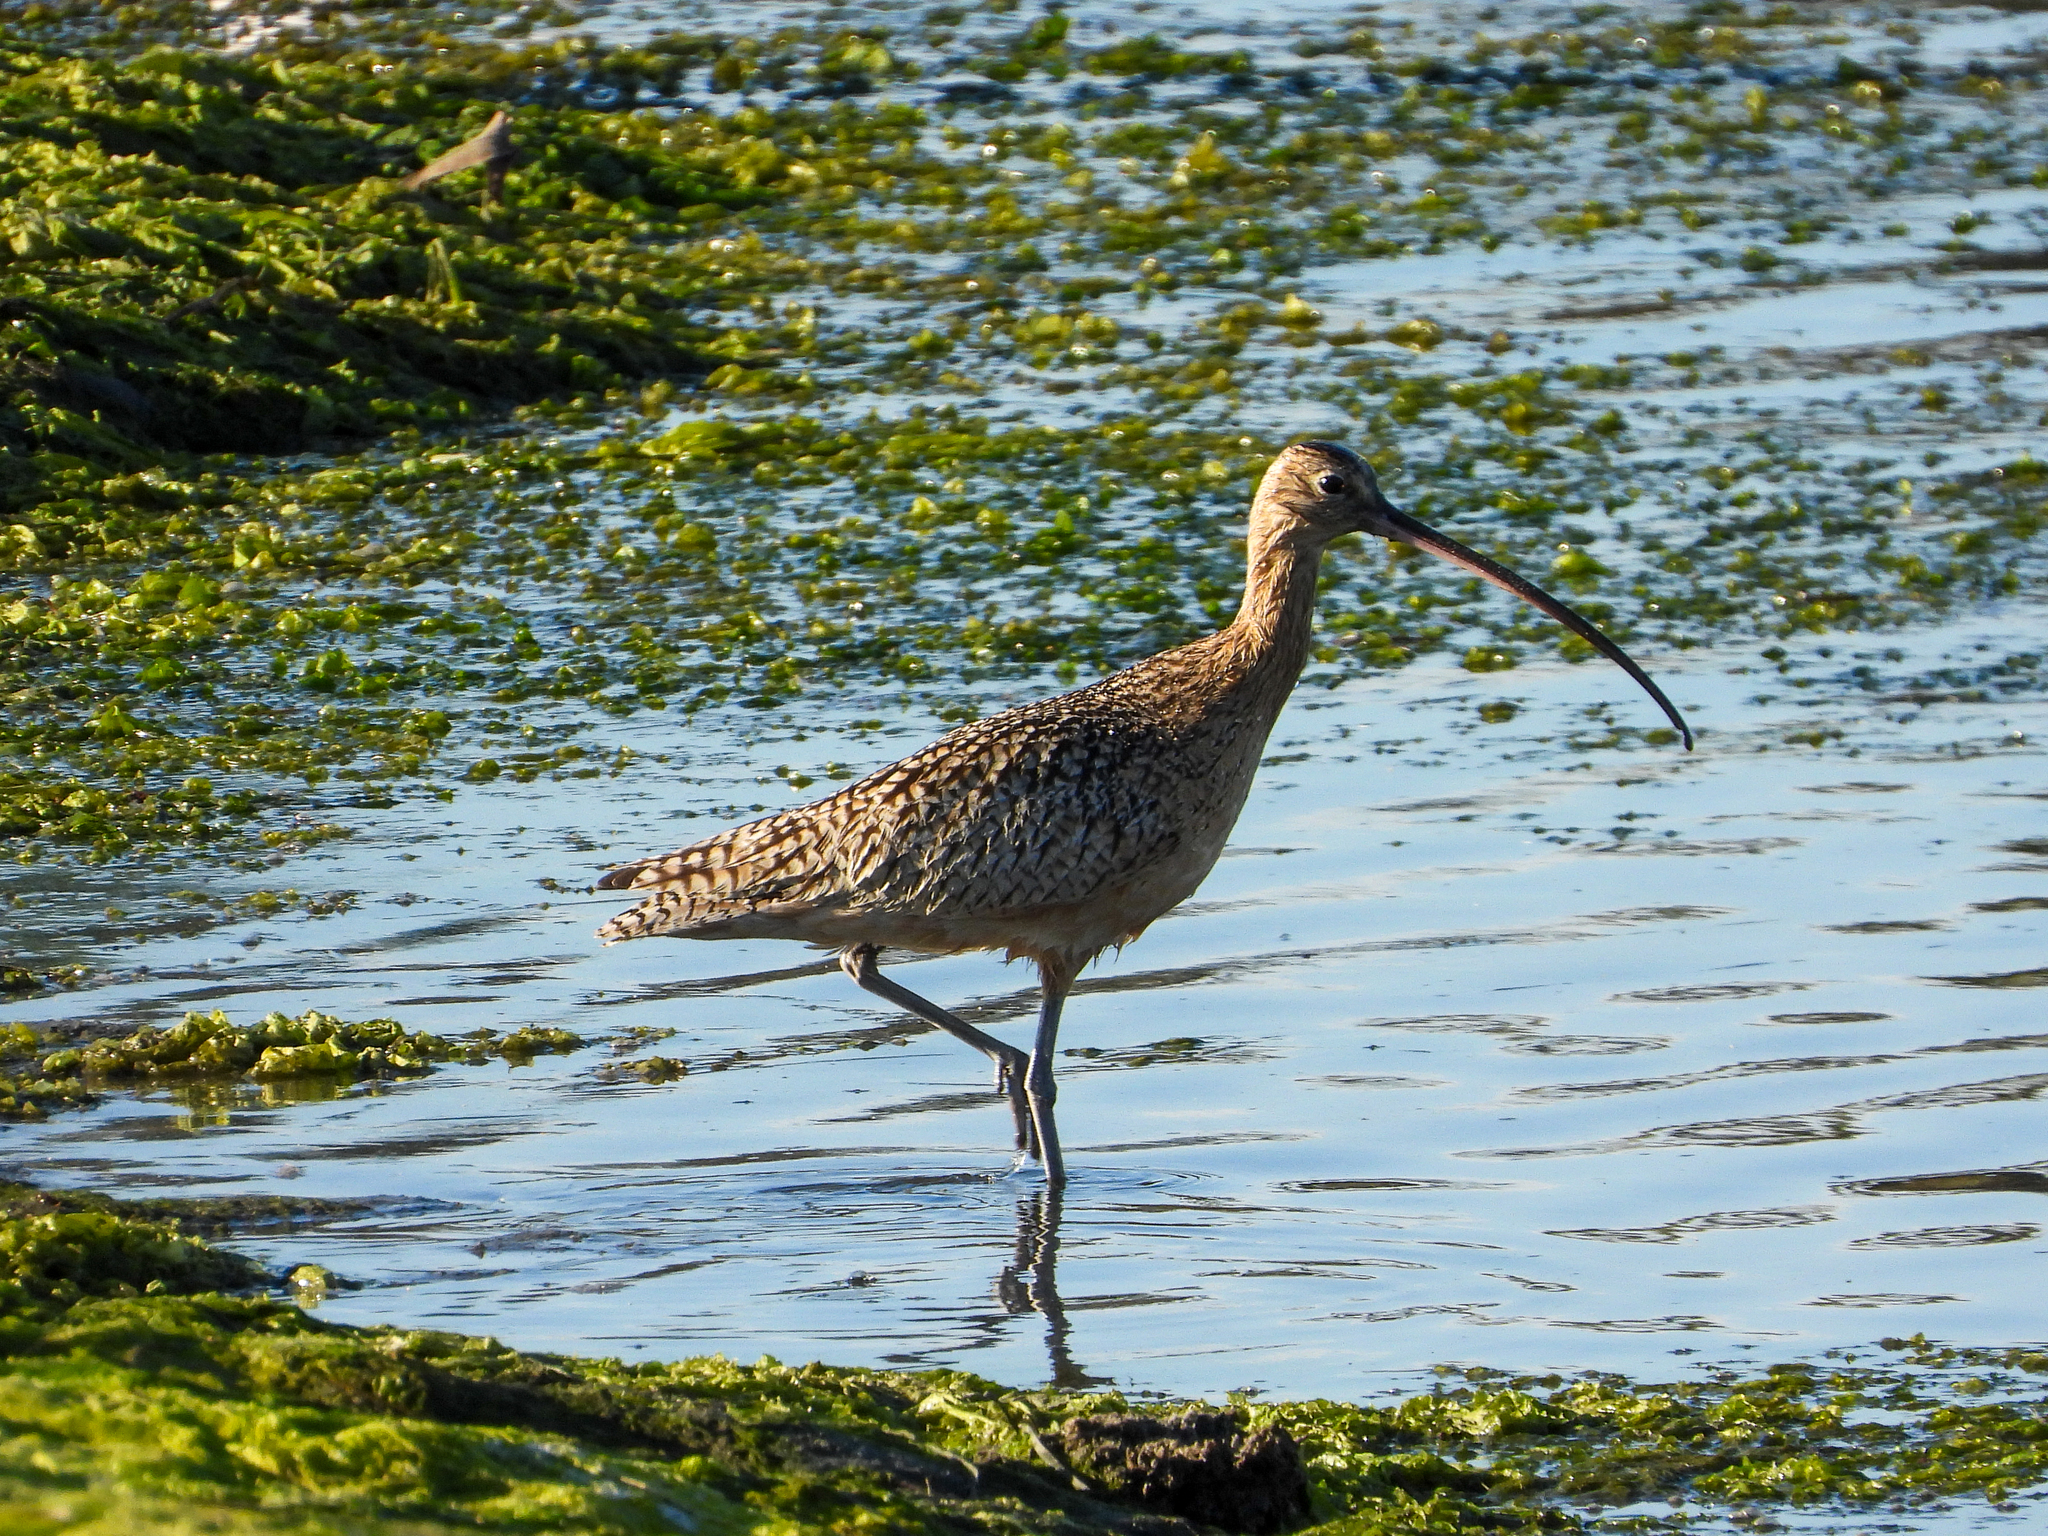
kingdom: Animalia
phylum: Chordata
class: Aves
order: Charadriiformes
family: Scolopacidae
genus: Numenius
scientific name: Numenius americanus
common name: Long-billed curlew
